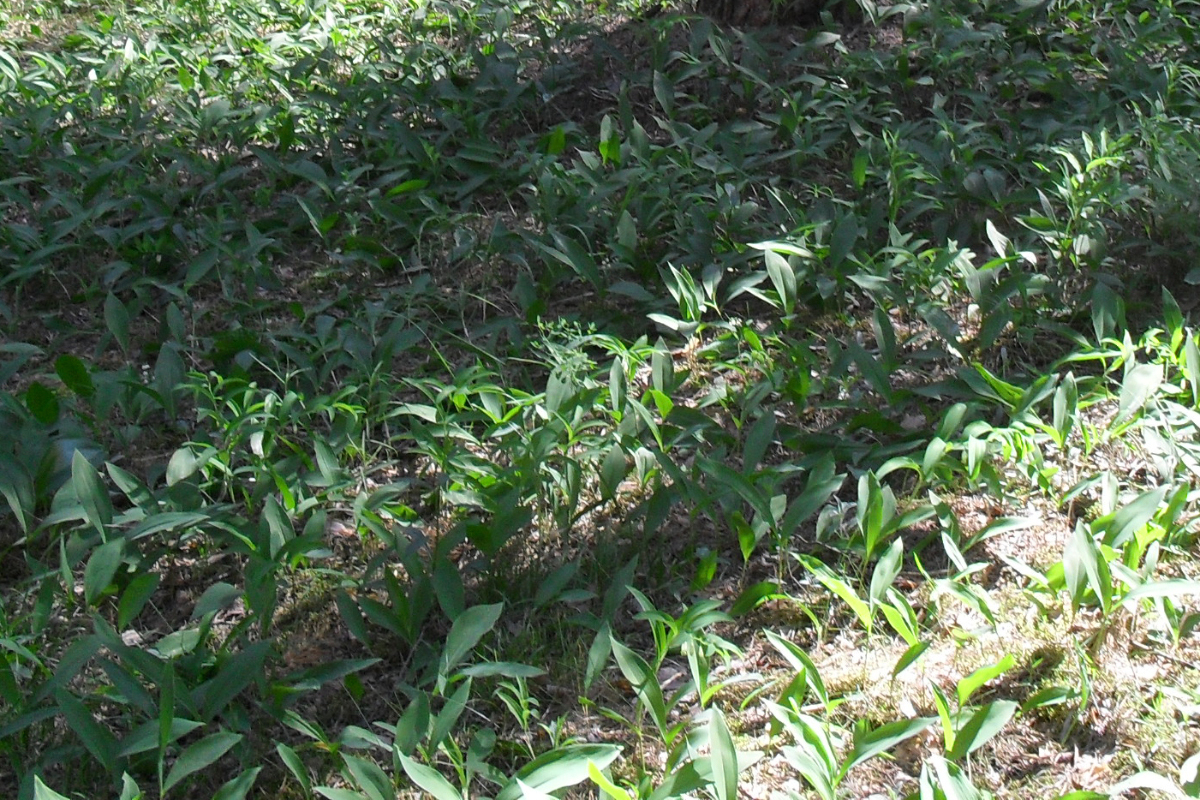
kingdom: Plantae
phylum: Tracheophyta
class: Liliopsida
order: Asparagales
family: Asparagaceae
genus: Convallaria
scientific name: Convallaria majalis
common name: Lily-of-the-valley
